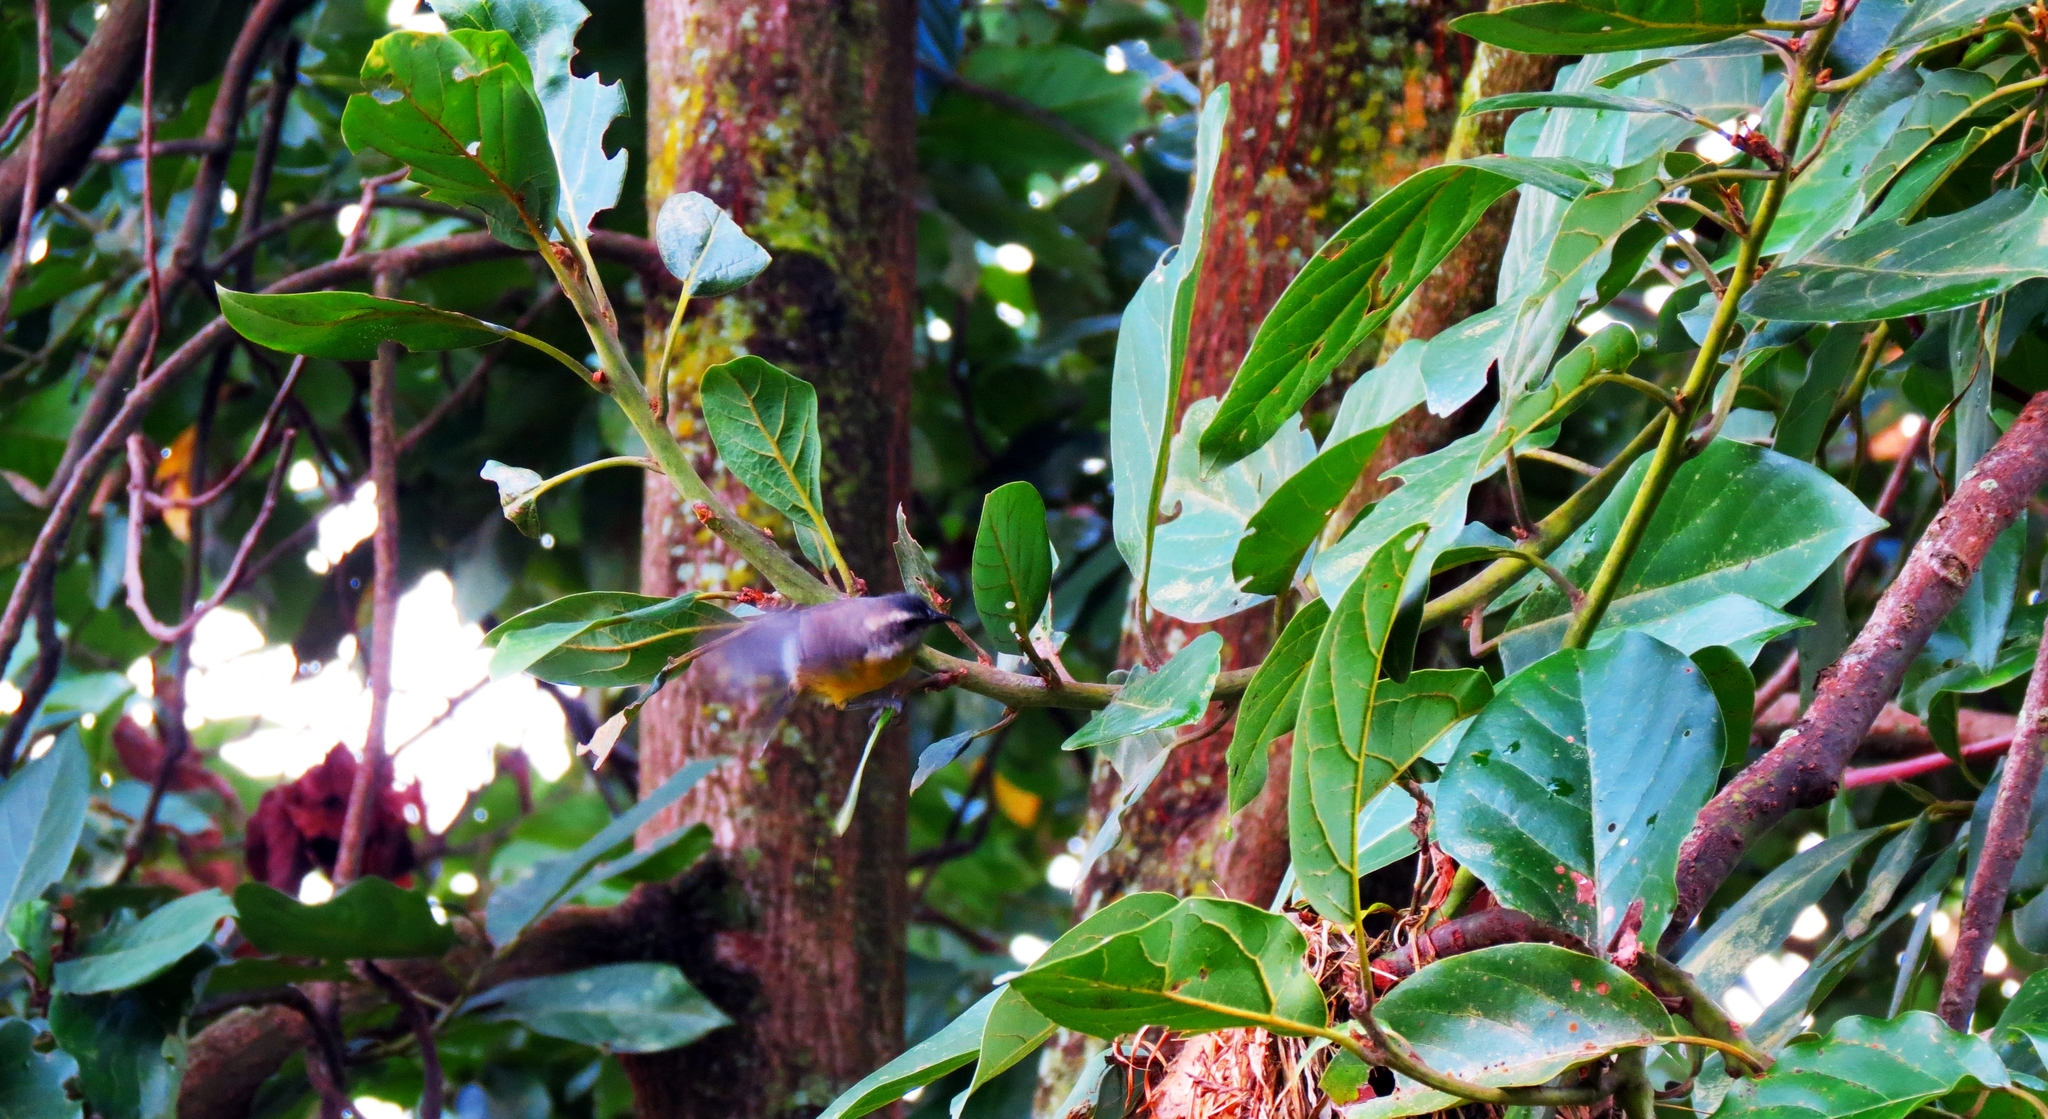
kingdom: Animalia
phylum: Chordata
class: Aves
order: Passeriformes
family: Thraupidae
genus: Coereba
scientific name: Coereba flaveola
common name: Bananaquit
